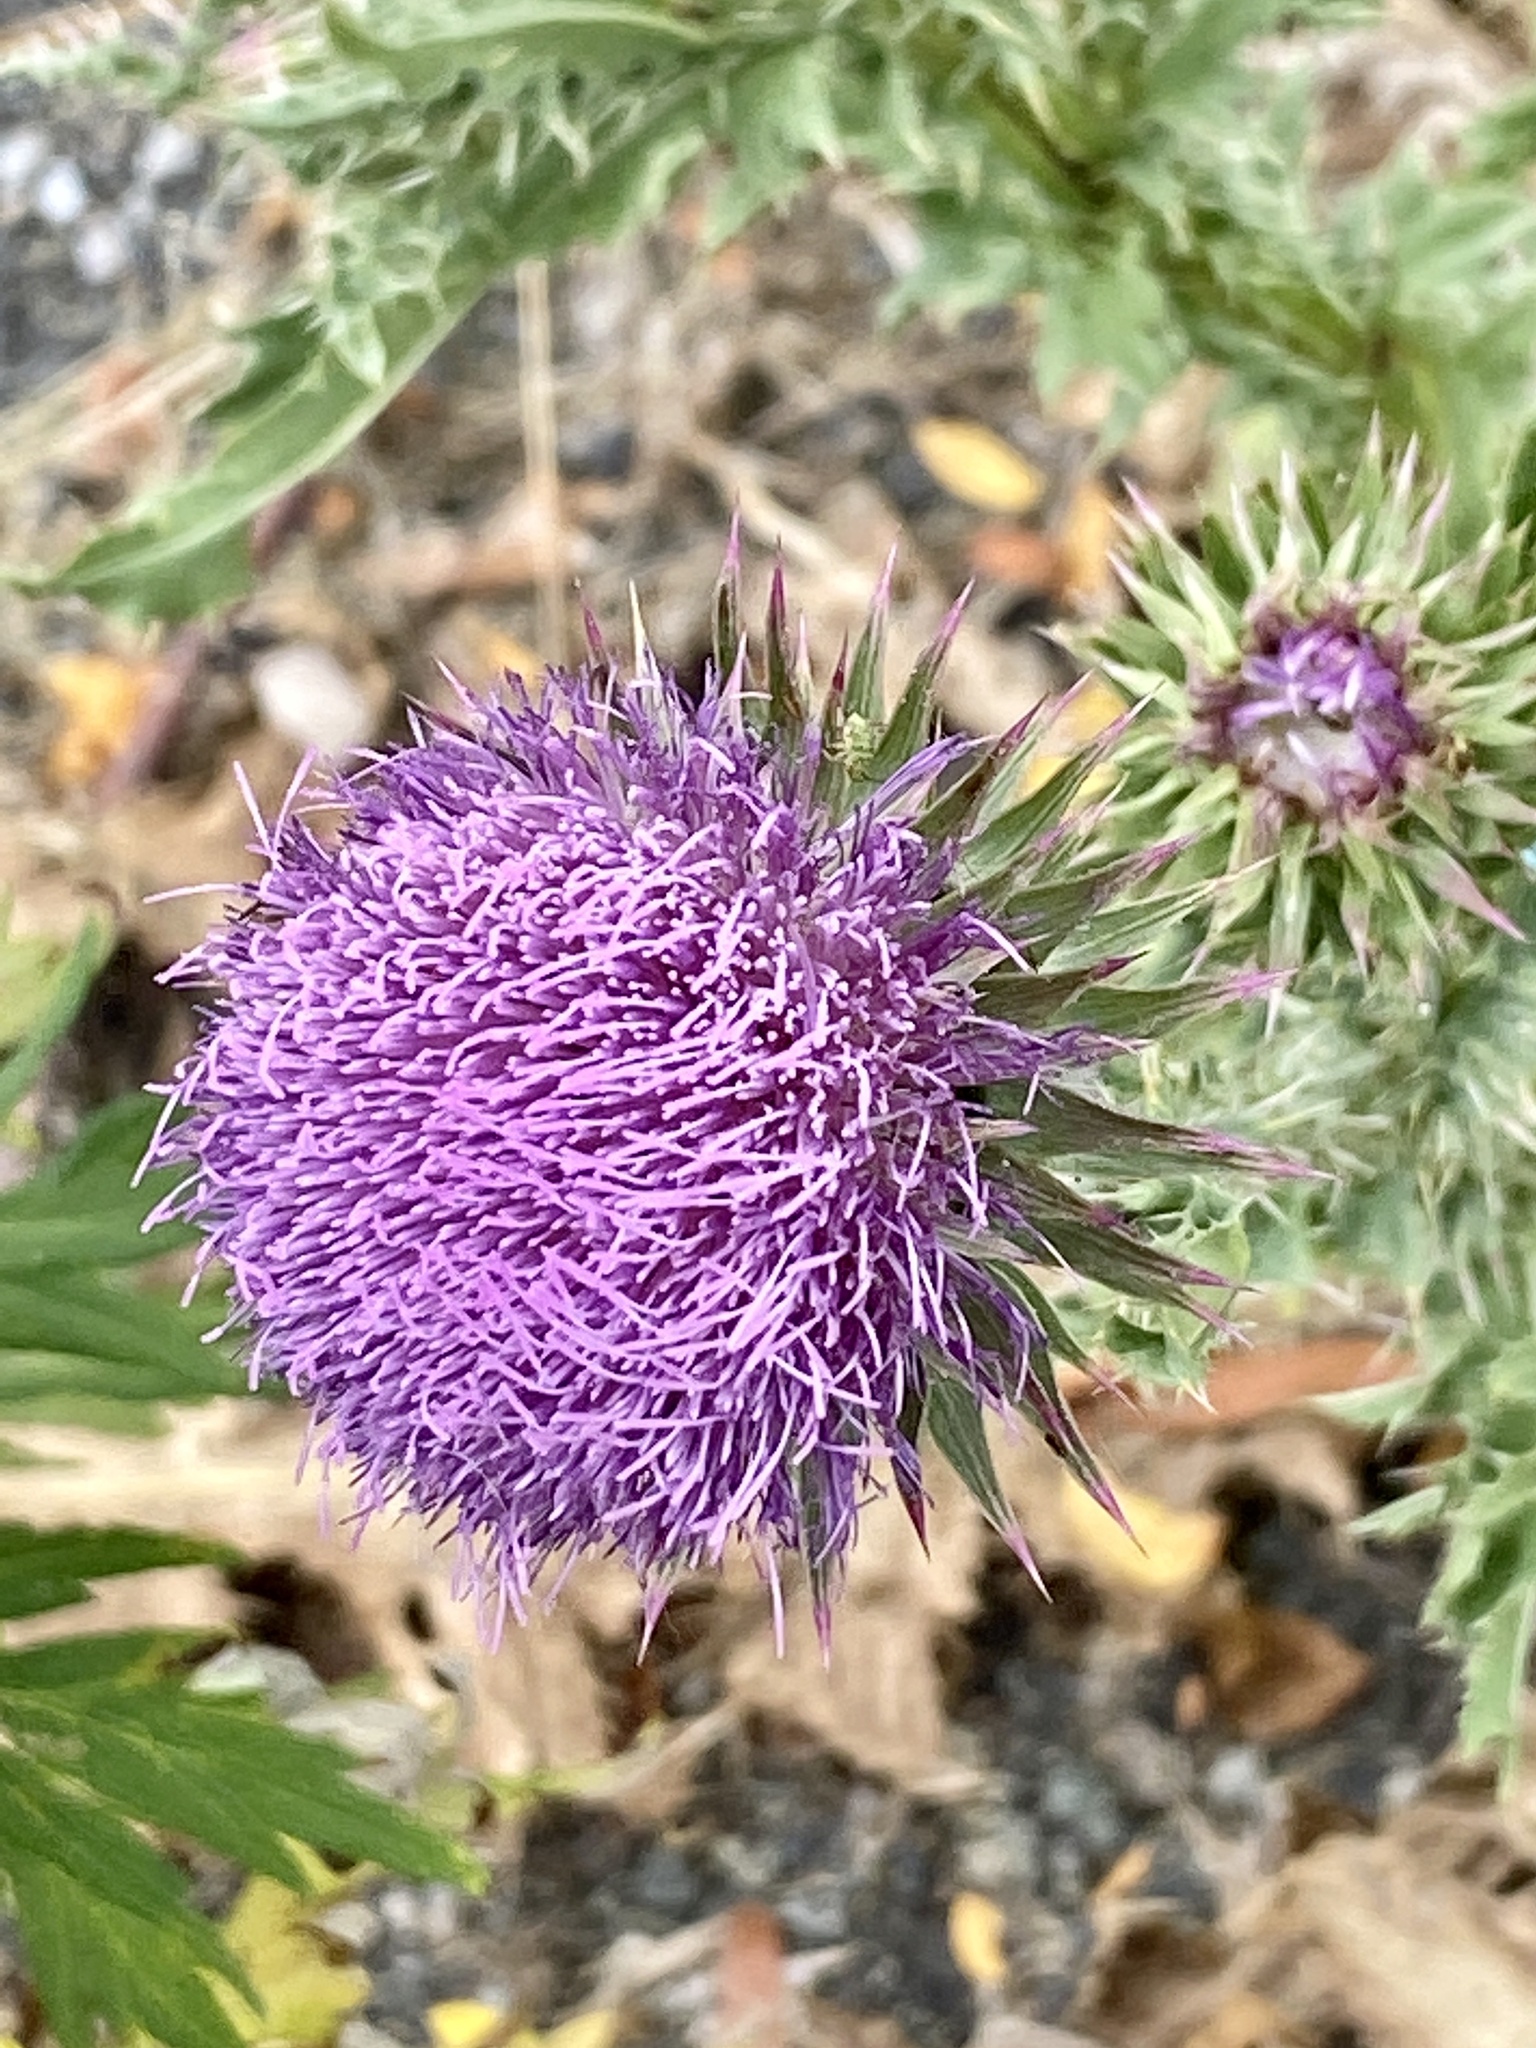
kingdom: Plantae
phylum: Tracheophyta
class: Magnoliopsida
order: Asterales
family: Asteraceae
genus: Carduus
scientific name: Carduus nutans
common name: Musk thistle
